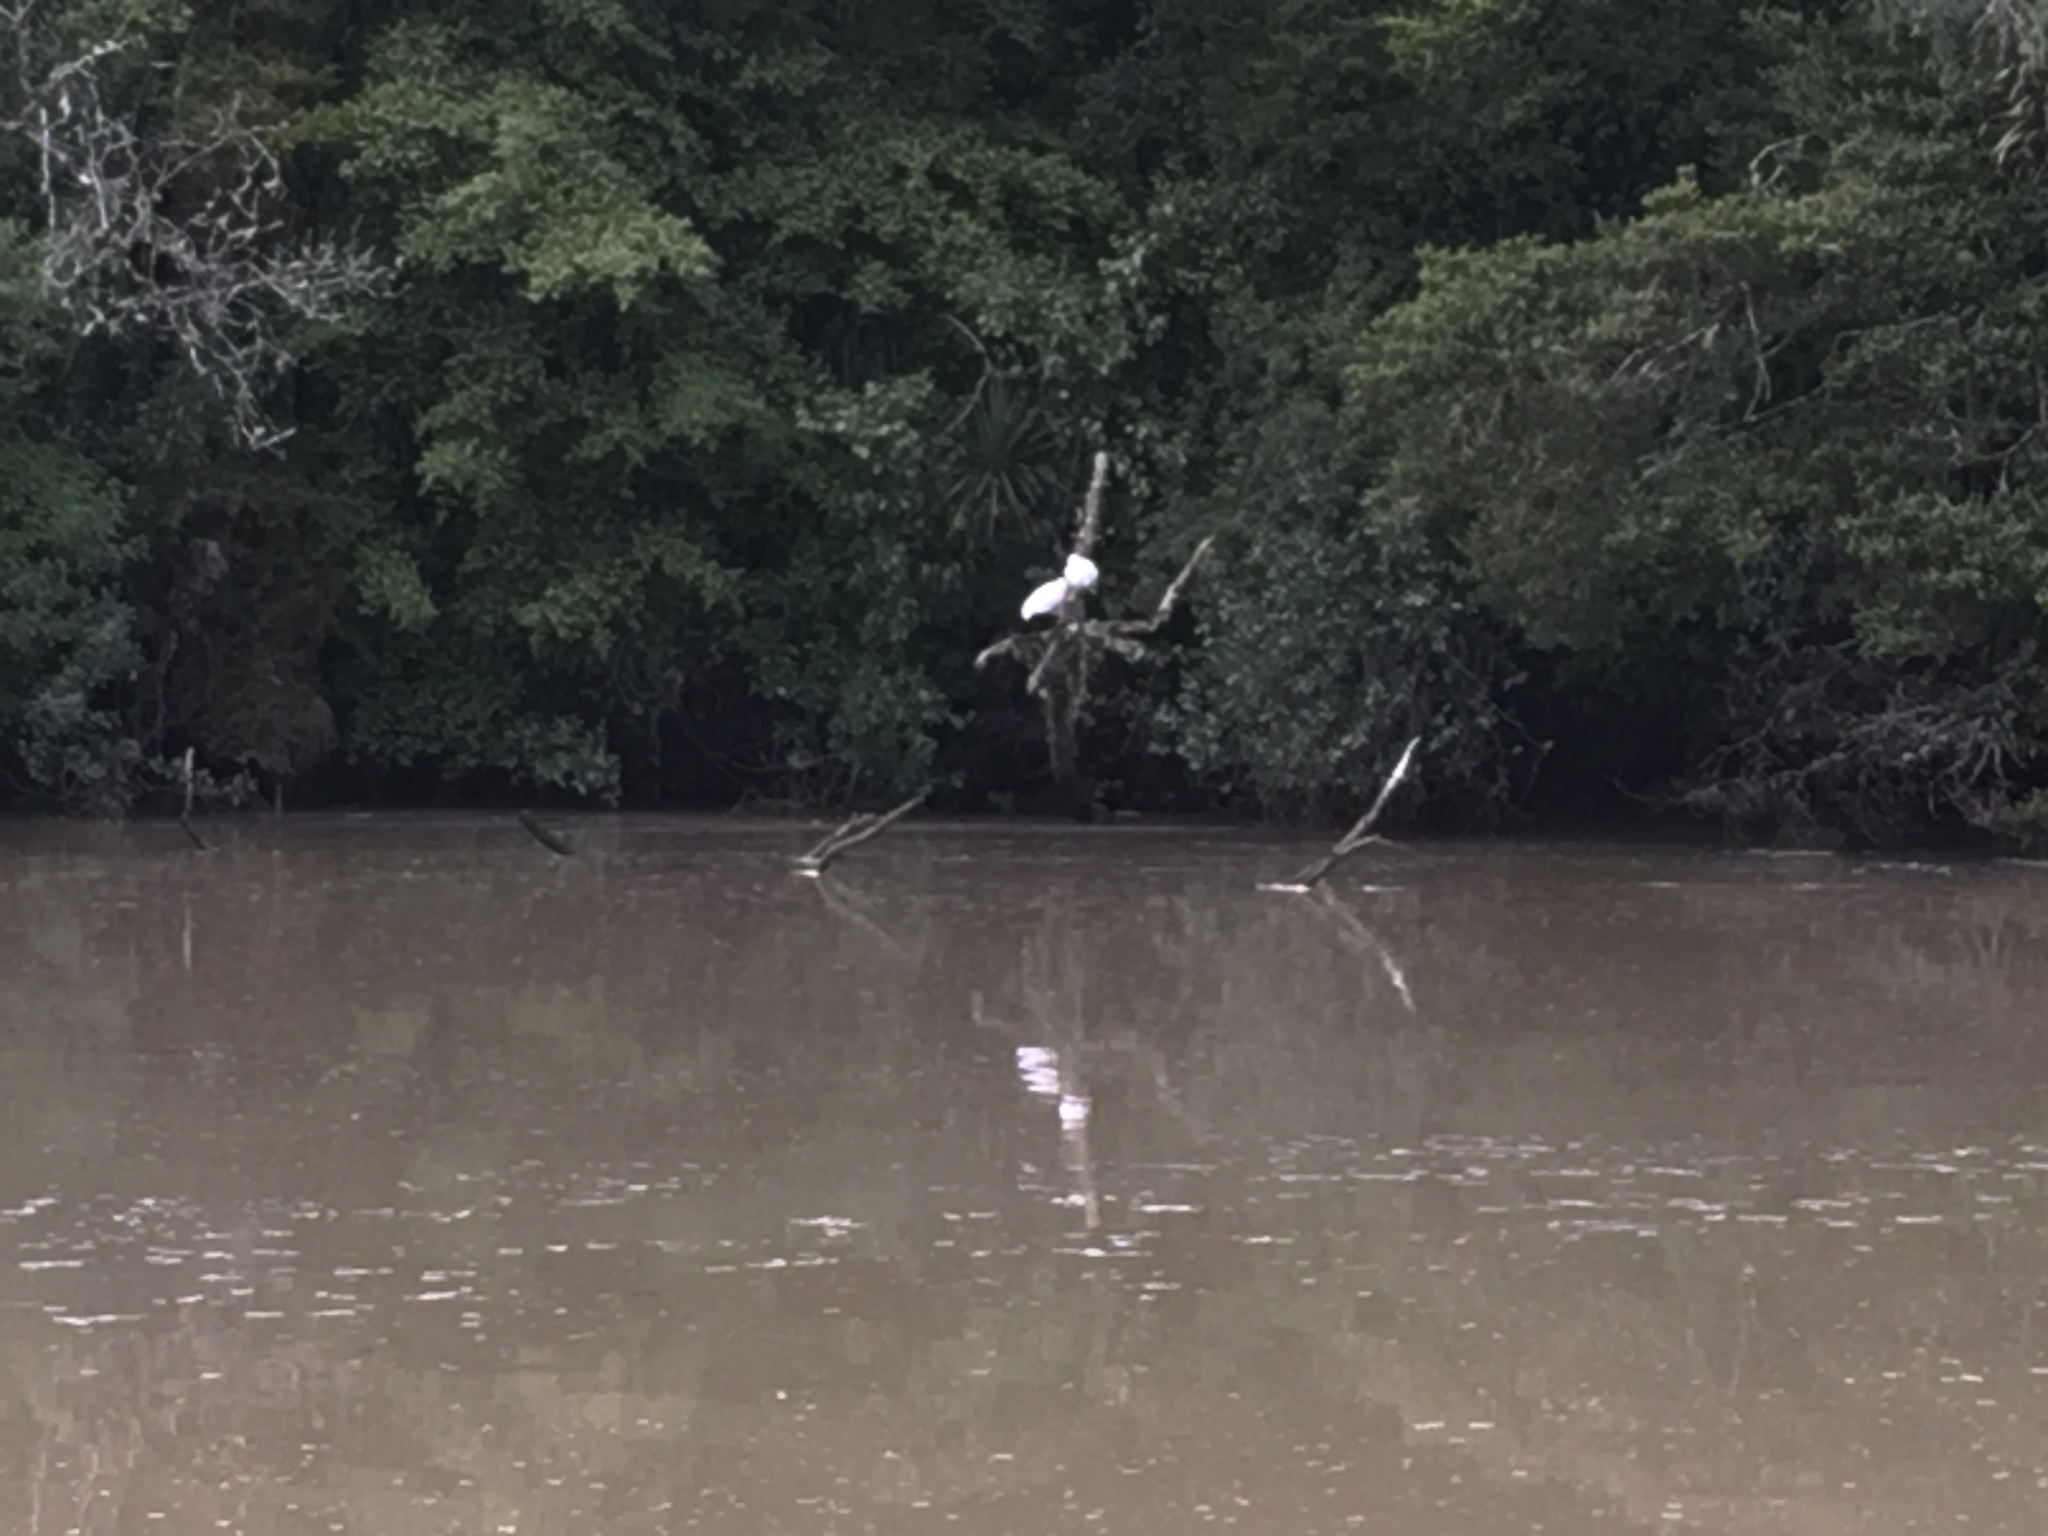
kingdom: Animalia
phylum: Chordata
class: Aves
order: Pelecaniformes
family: Threskiornithidae
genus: Platalea
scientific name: Platalea regia
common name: Royal spoonbill
